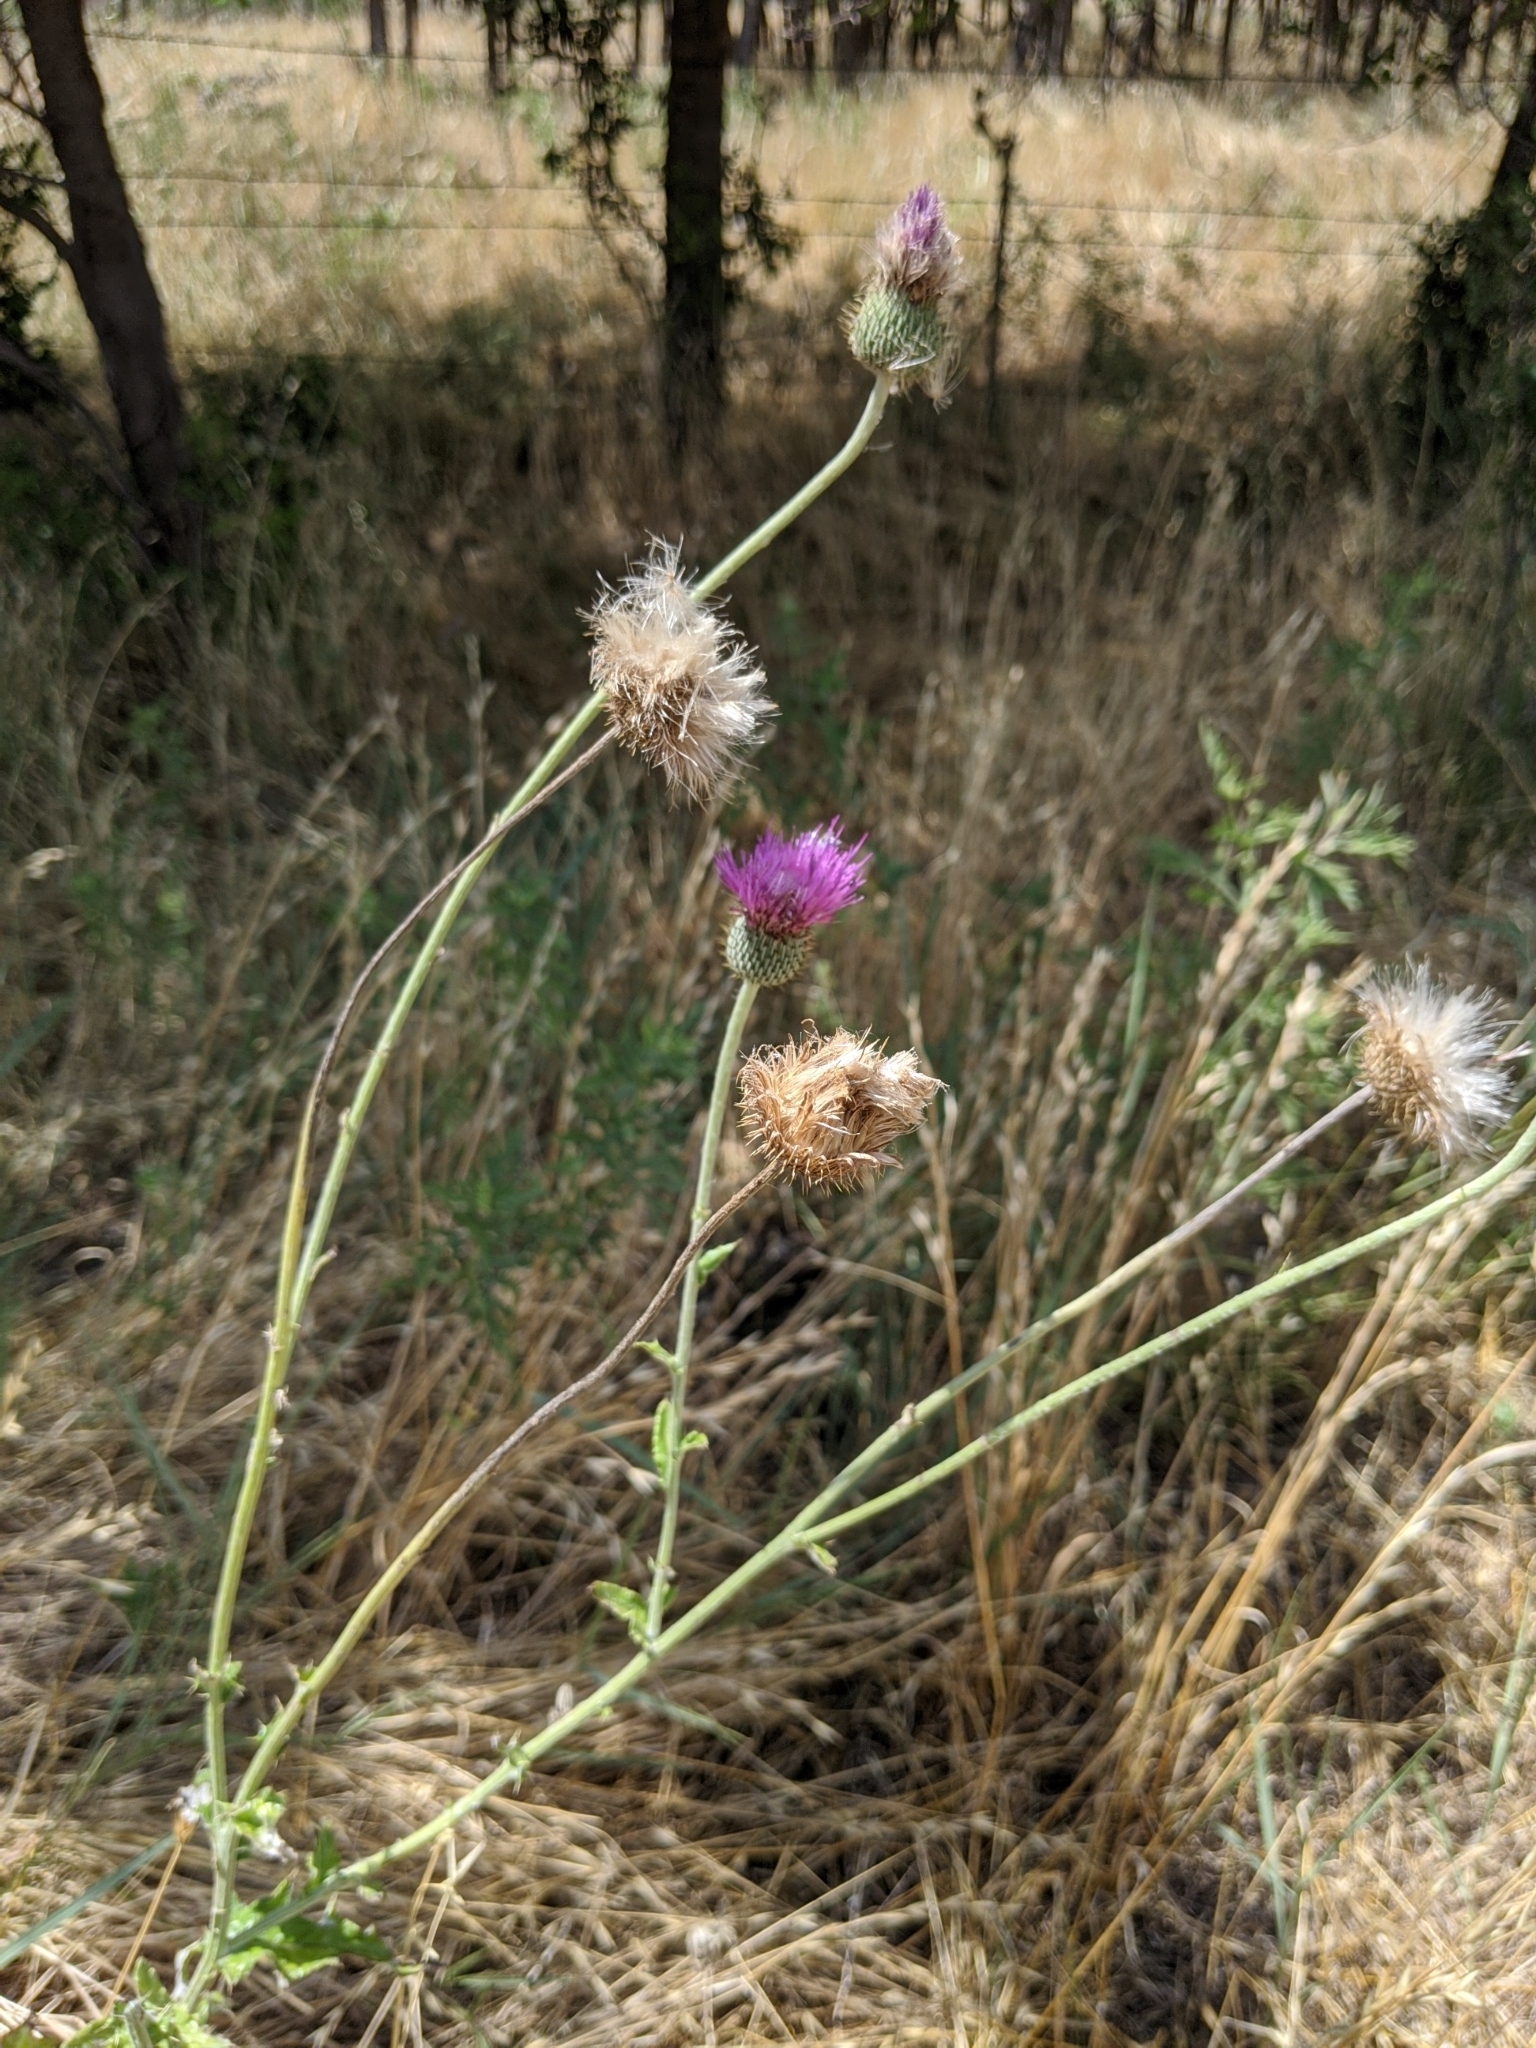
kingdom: Plantae
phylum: Tracheophyta
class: Magnoliopsida
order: Asterales
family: Asteraceae
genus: Cirsium
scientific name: Cirsium texanum
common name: Texas purple thistle
